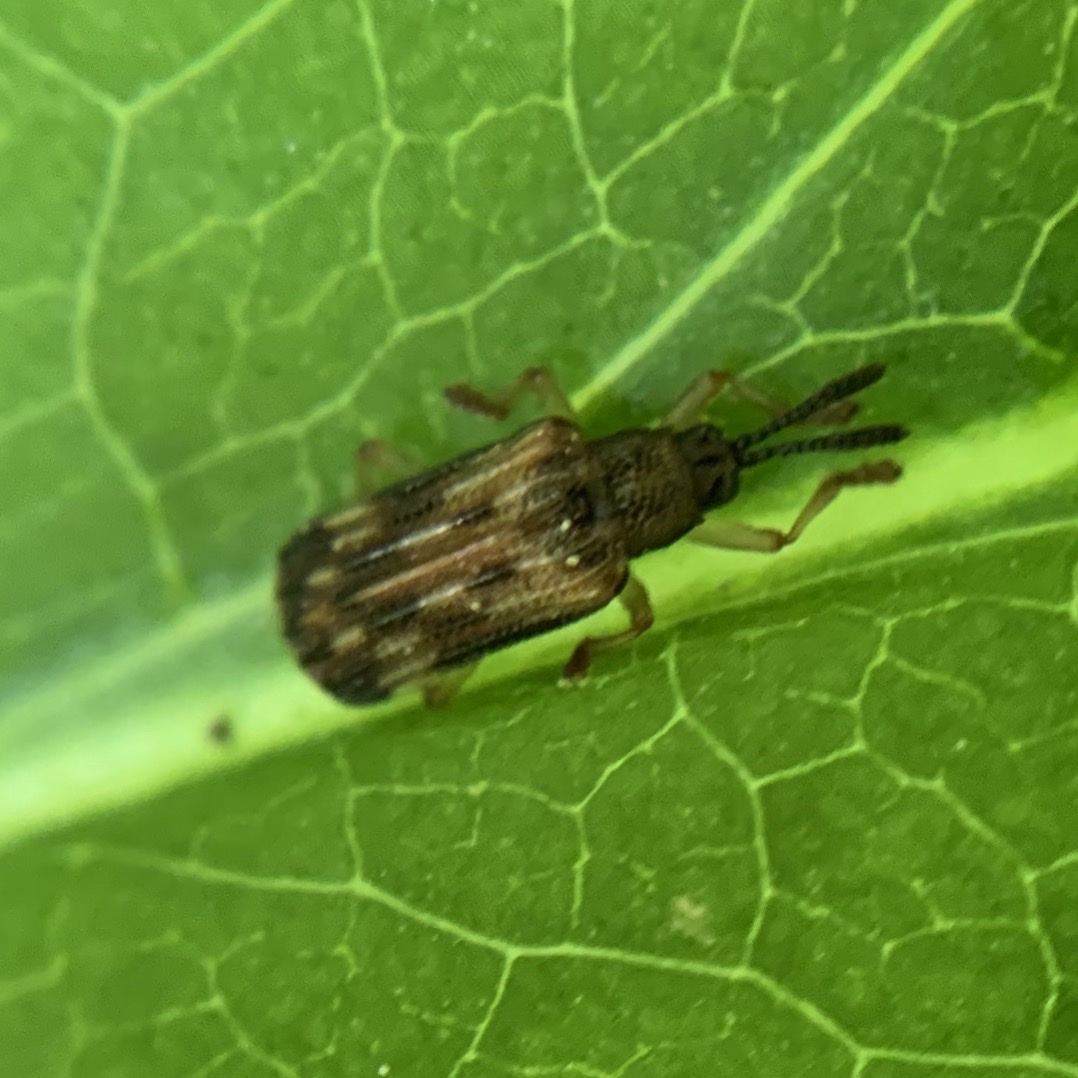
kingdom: Animalia
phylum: Arthropoda
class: Insecta
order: Coleoptera
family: Chrysomelidae
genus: Sumitrosis
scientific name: Sumitrosis inaequalis
